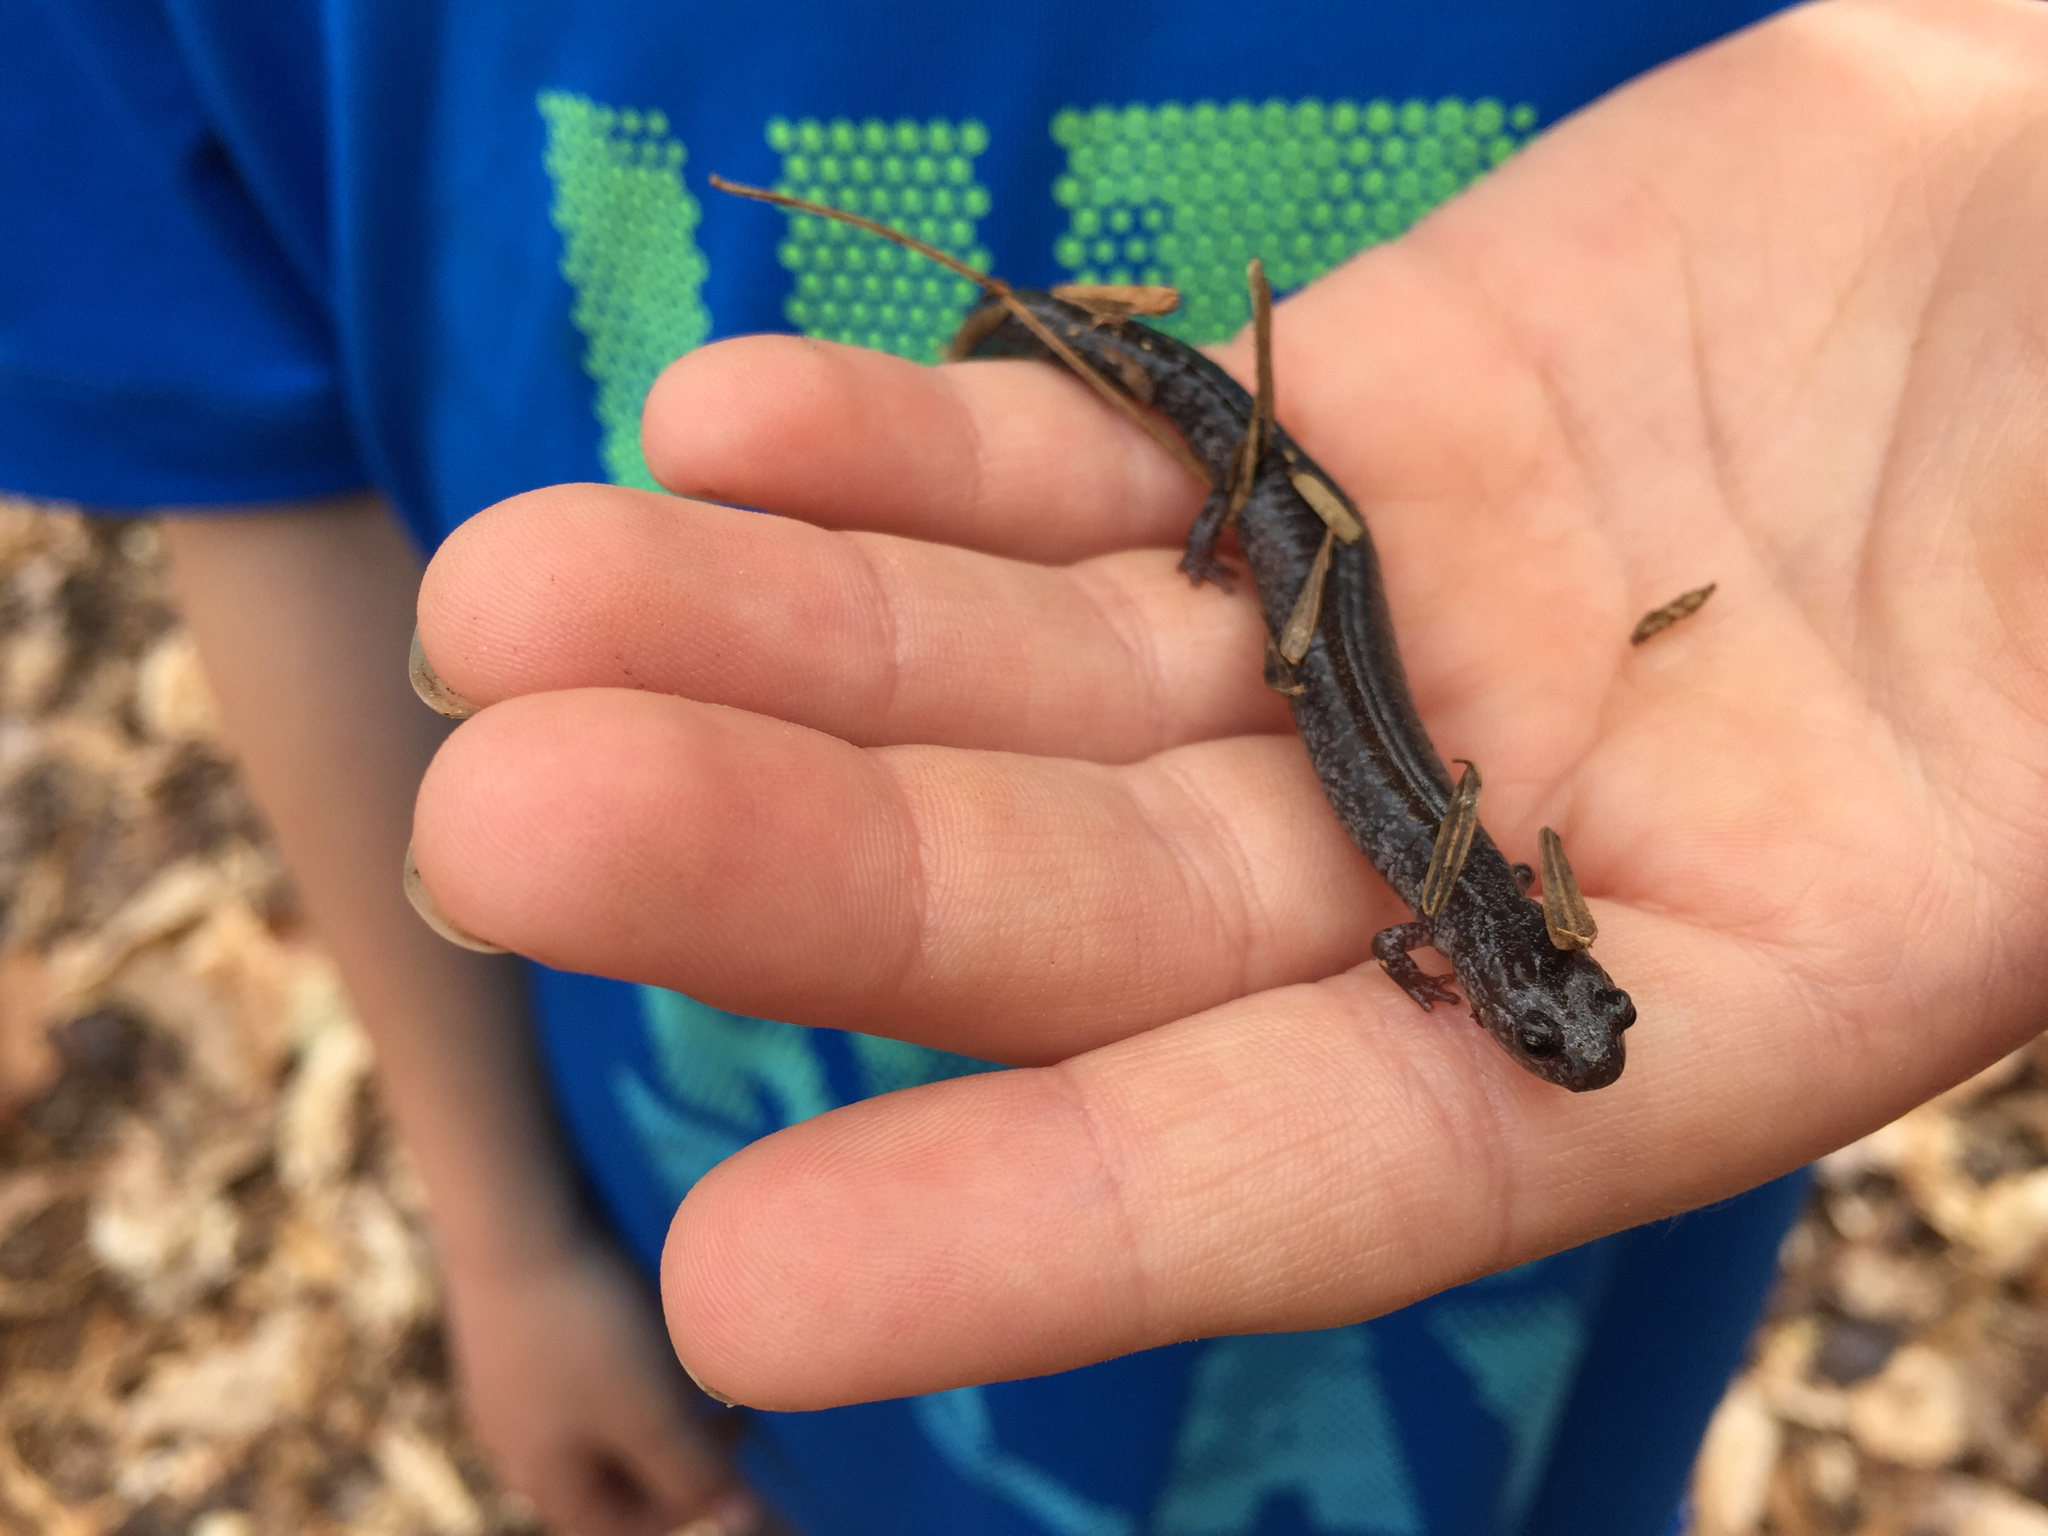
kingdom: Animalia
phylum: Chordata
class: Amphibia
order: Caudata
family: Plethodontidae
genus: Plethodon
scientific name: Plethodon cinereus
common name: Redback salamander
